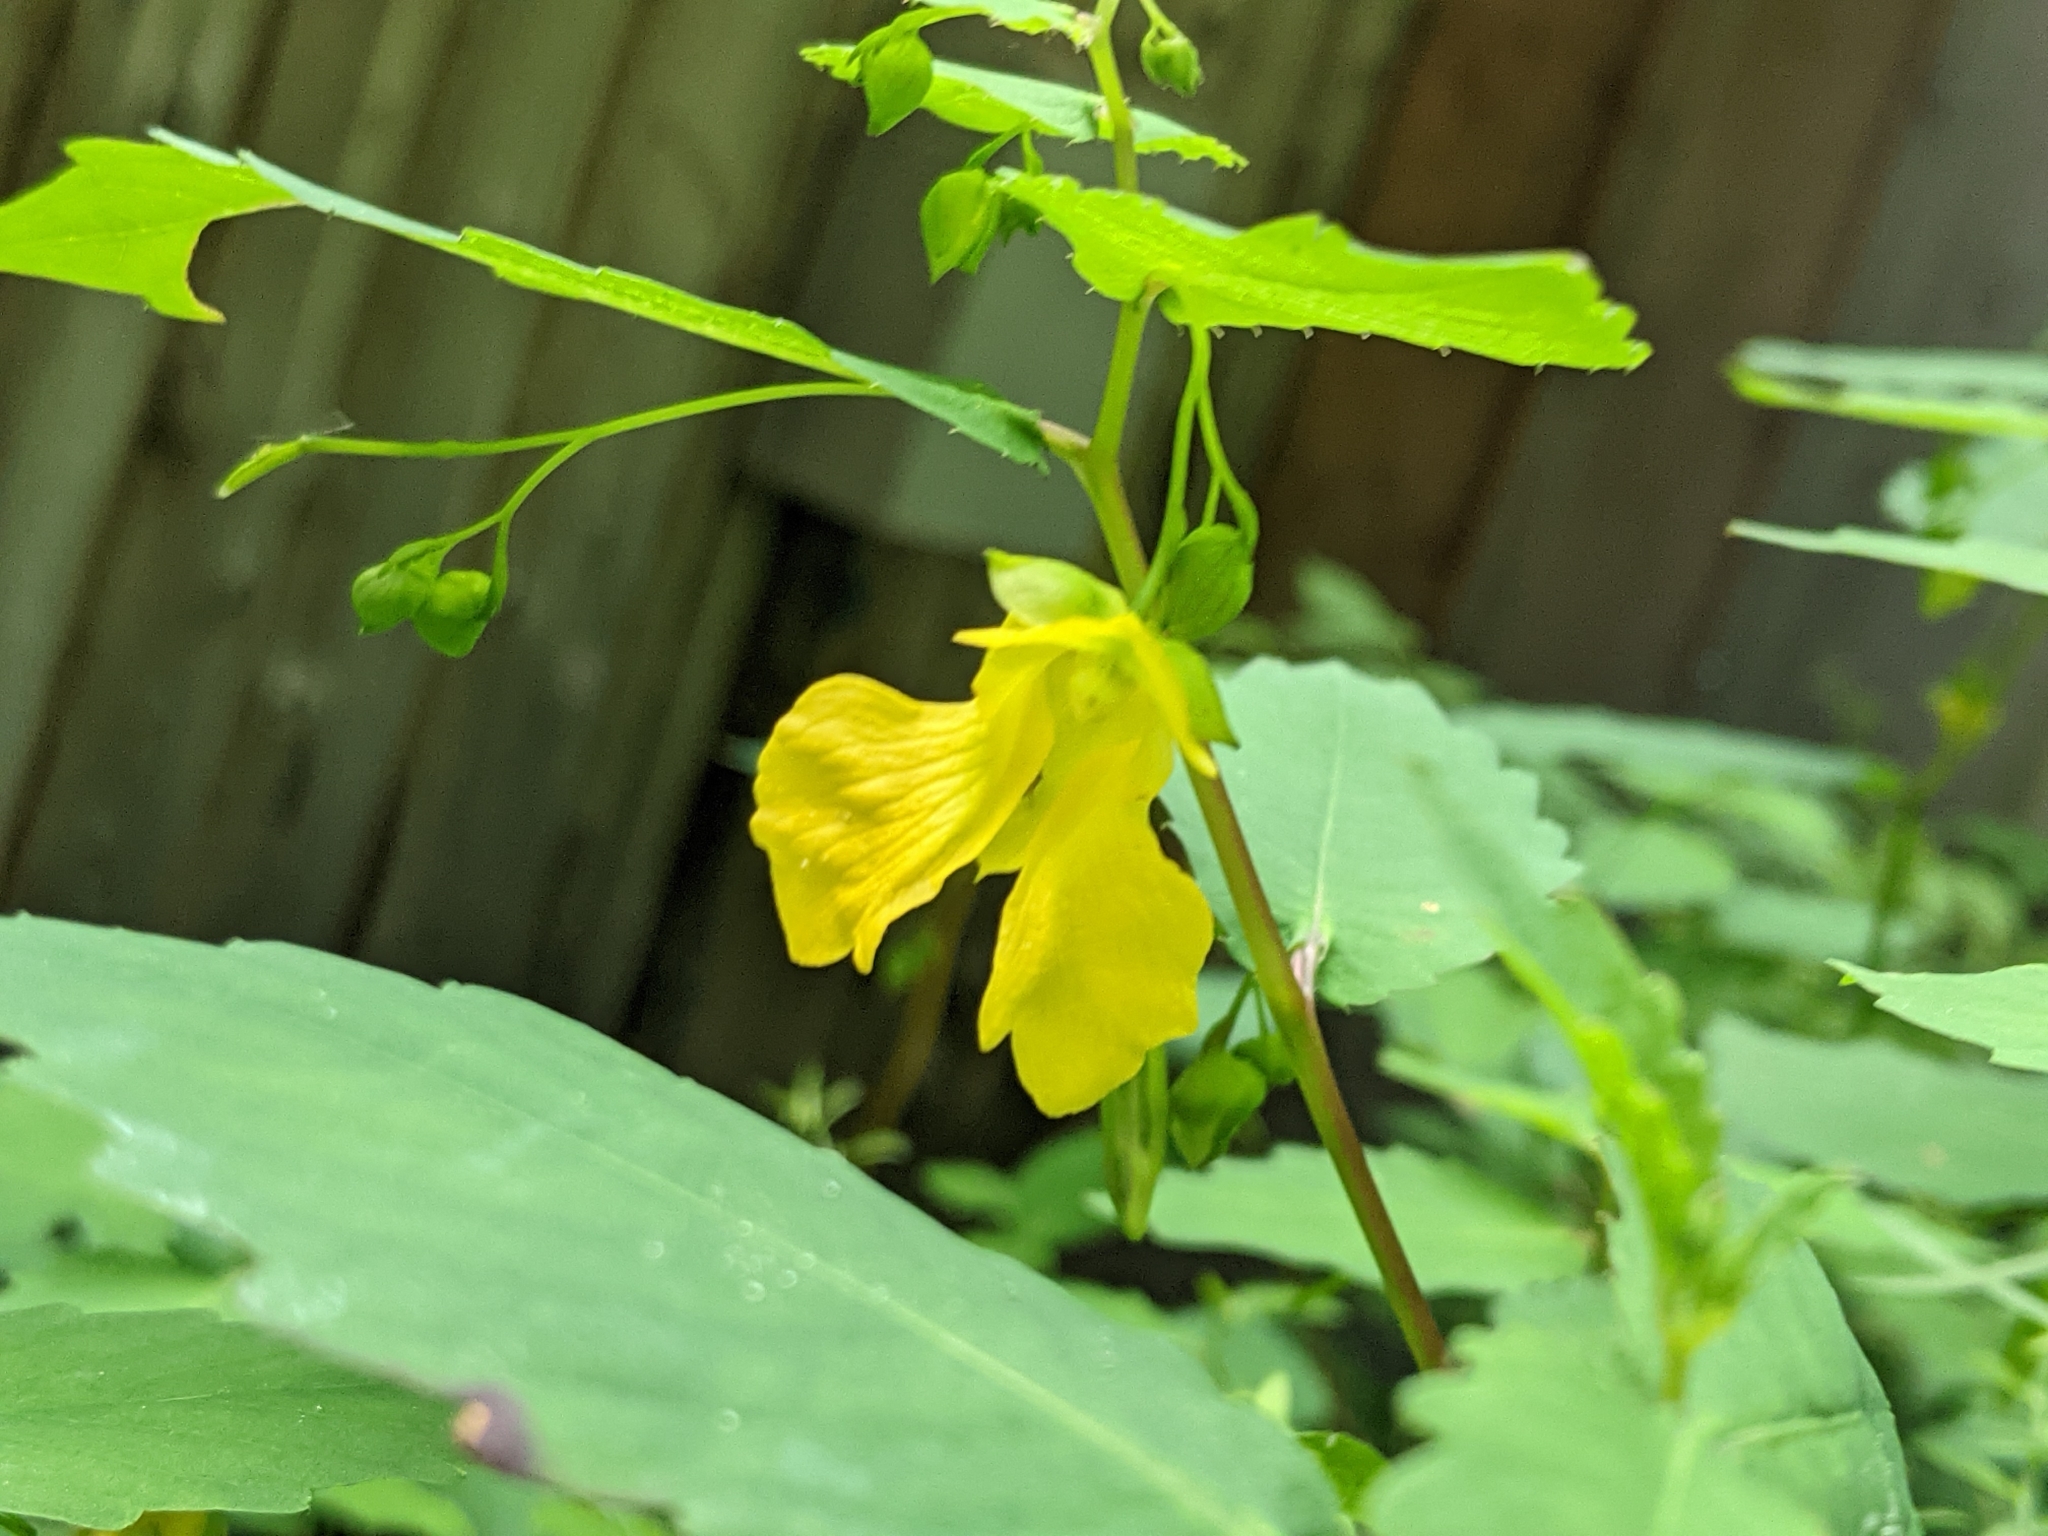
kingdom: Plantae
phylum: Tracheophyta
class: Magnoliopsida
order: Ericales
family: Balsaminaceae
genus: Impatiens
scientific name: Impatiens pallida
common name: Pale snapweed
